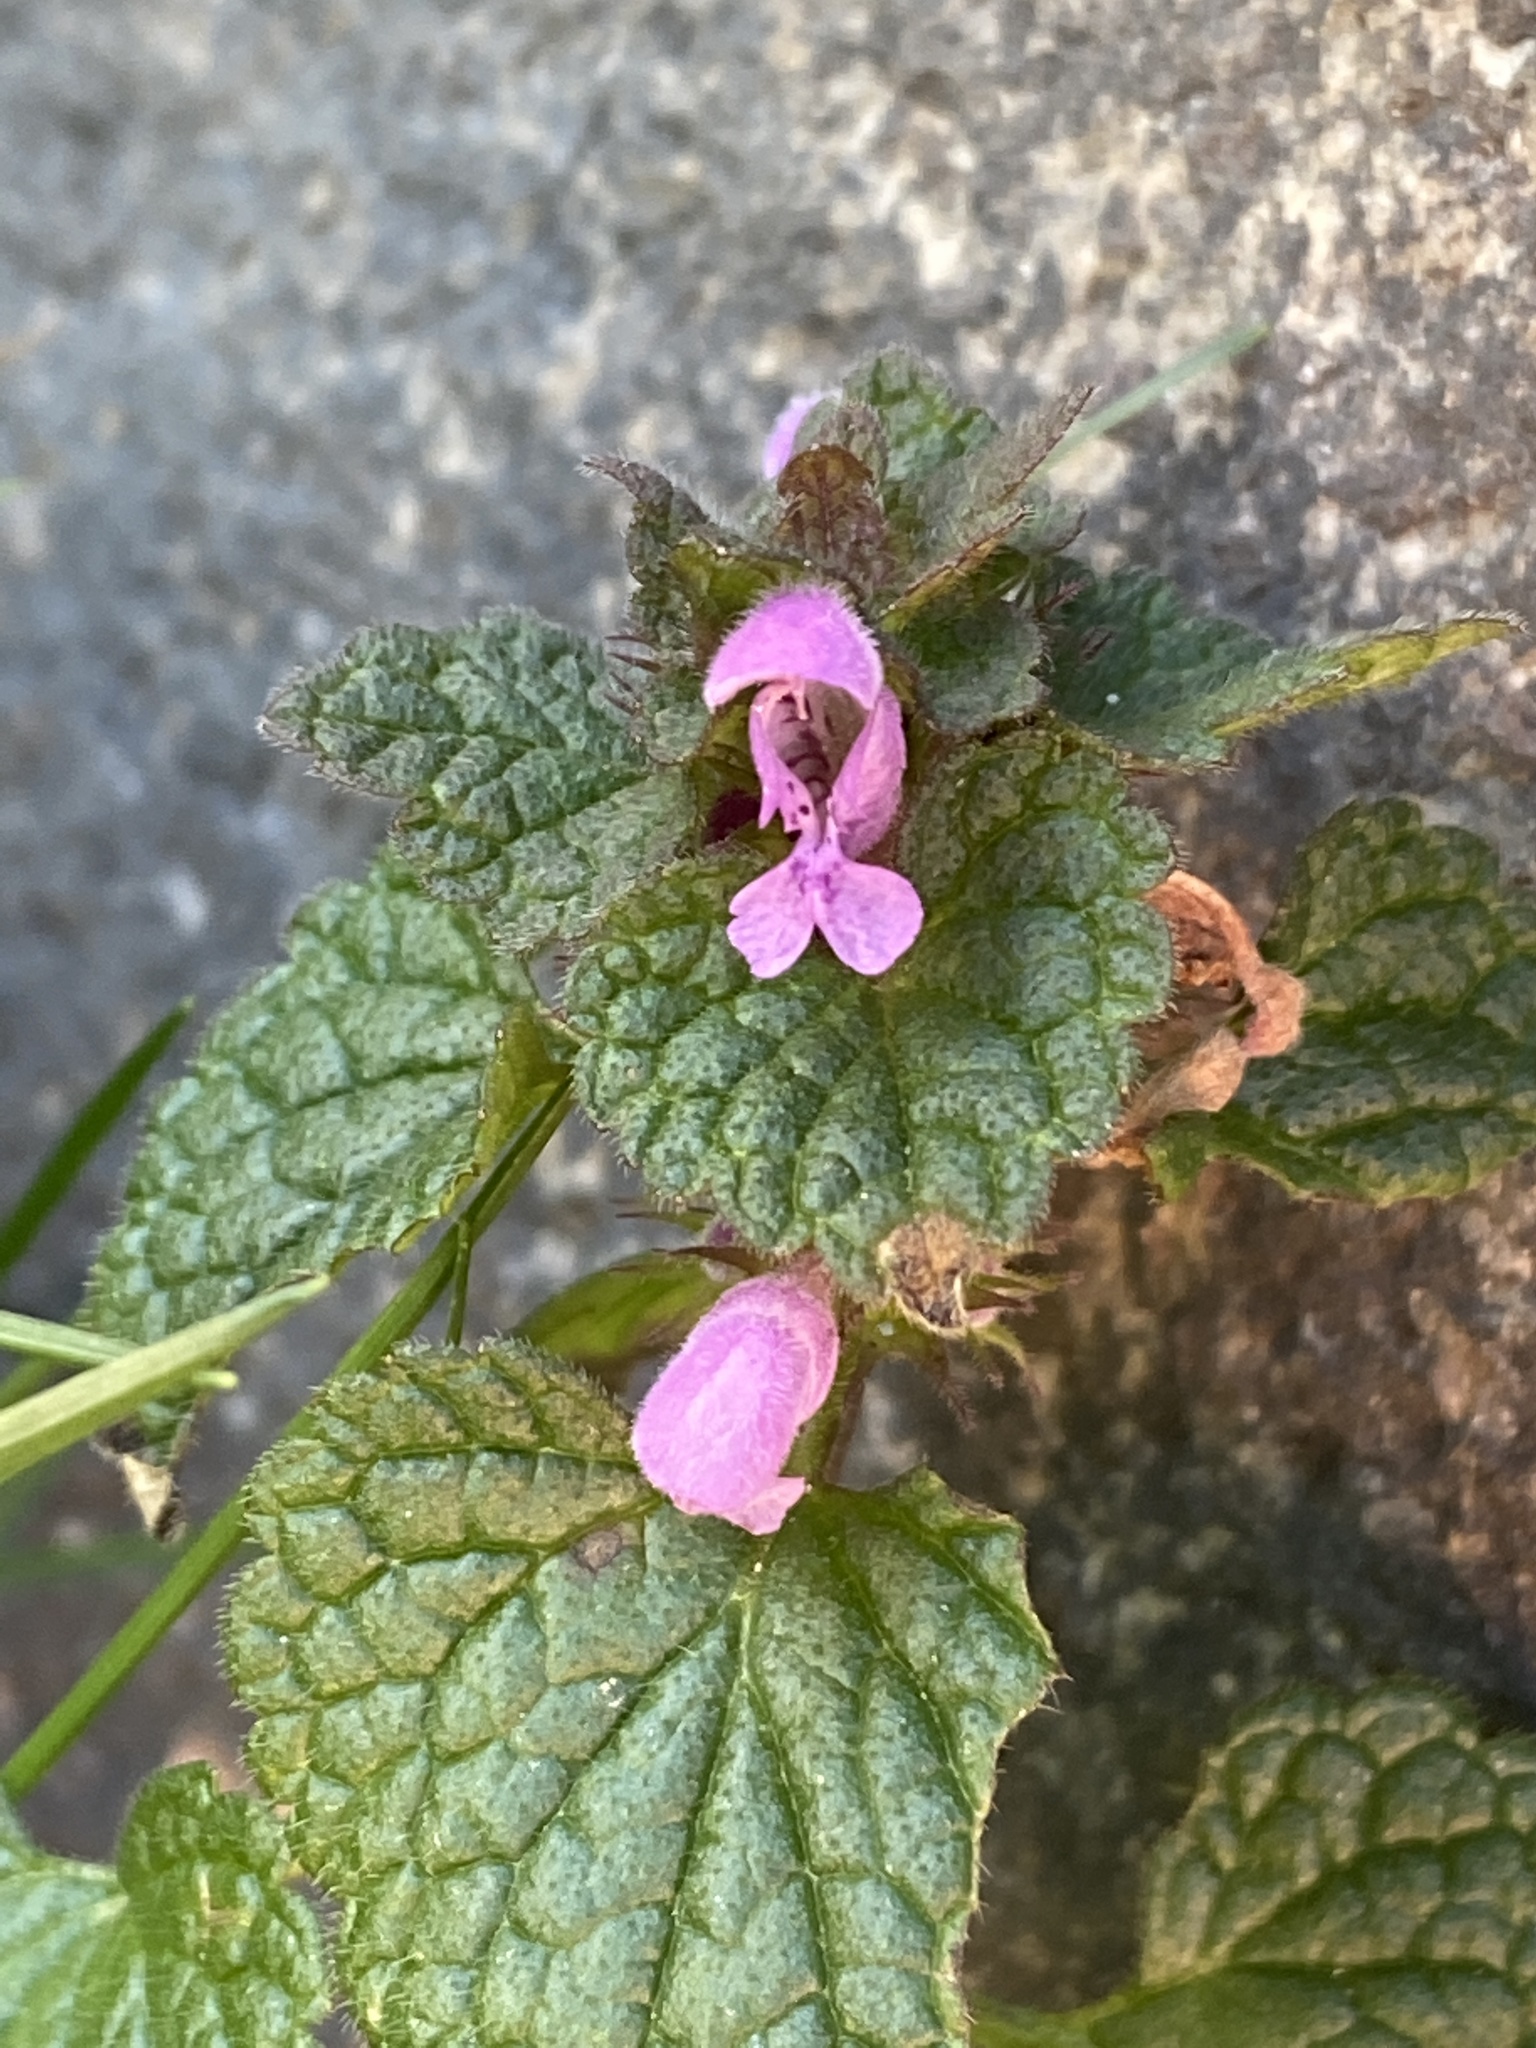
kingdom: Plantae
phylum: Tracheophyta
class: Magnoliopsida
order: Lamiales
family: Lamiaceae
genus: Lamium
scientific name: Lamium purpureum
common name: Red dead-nettle
